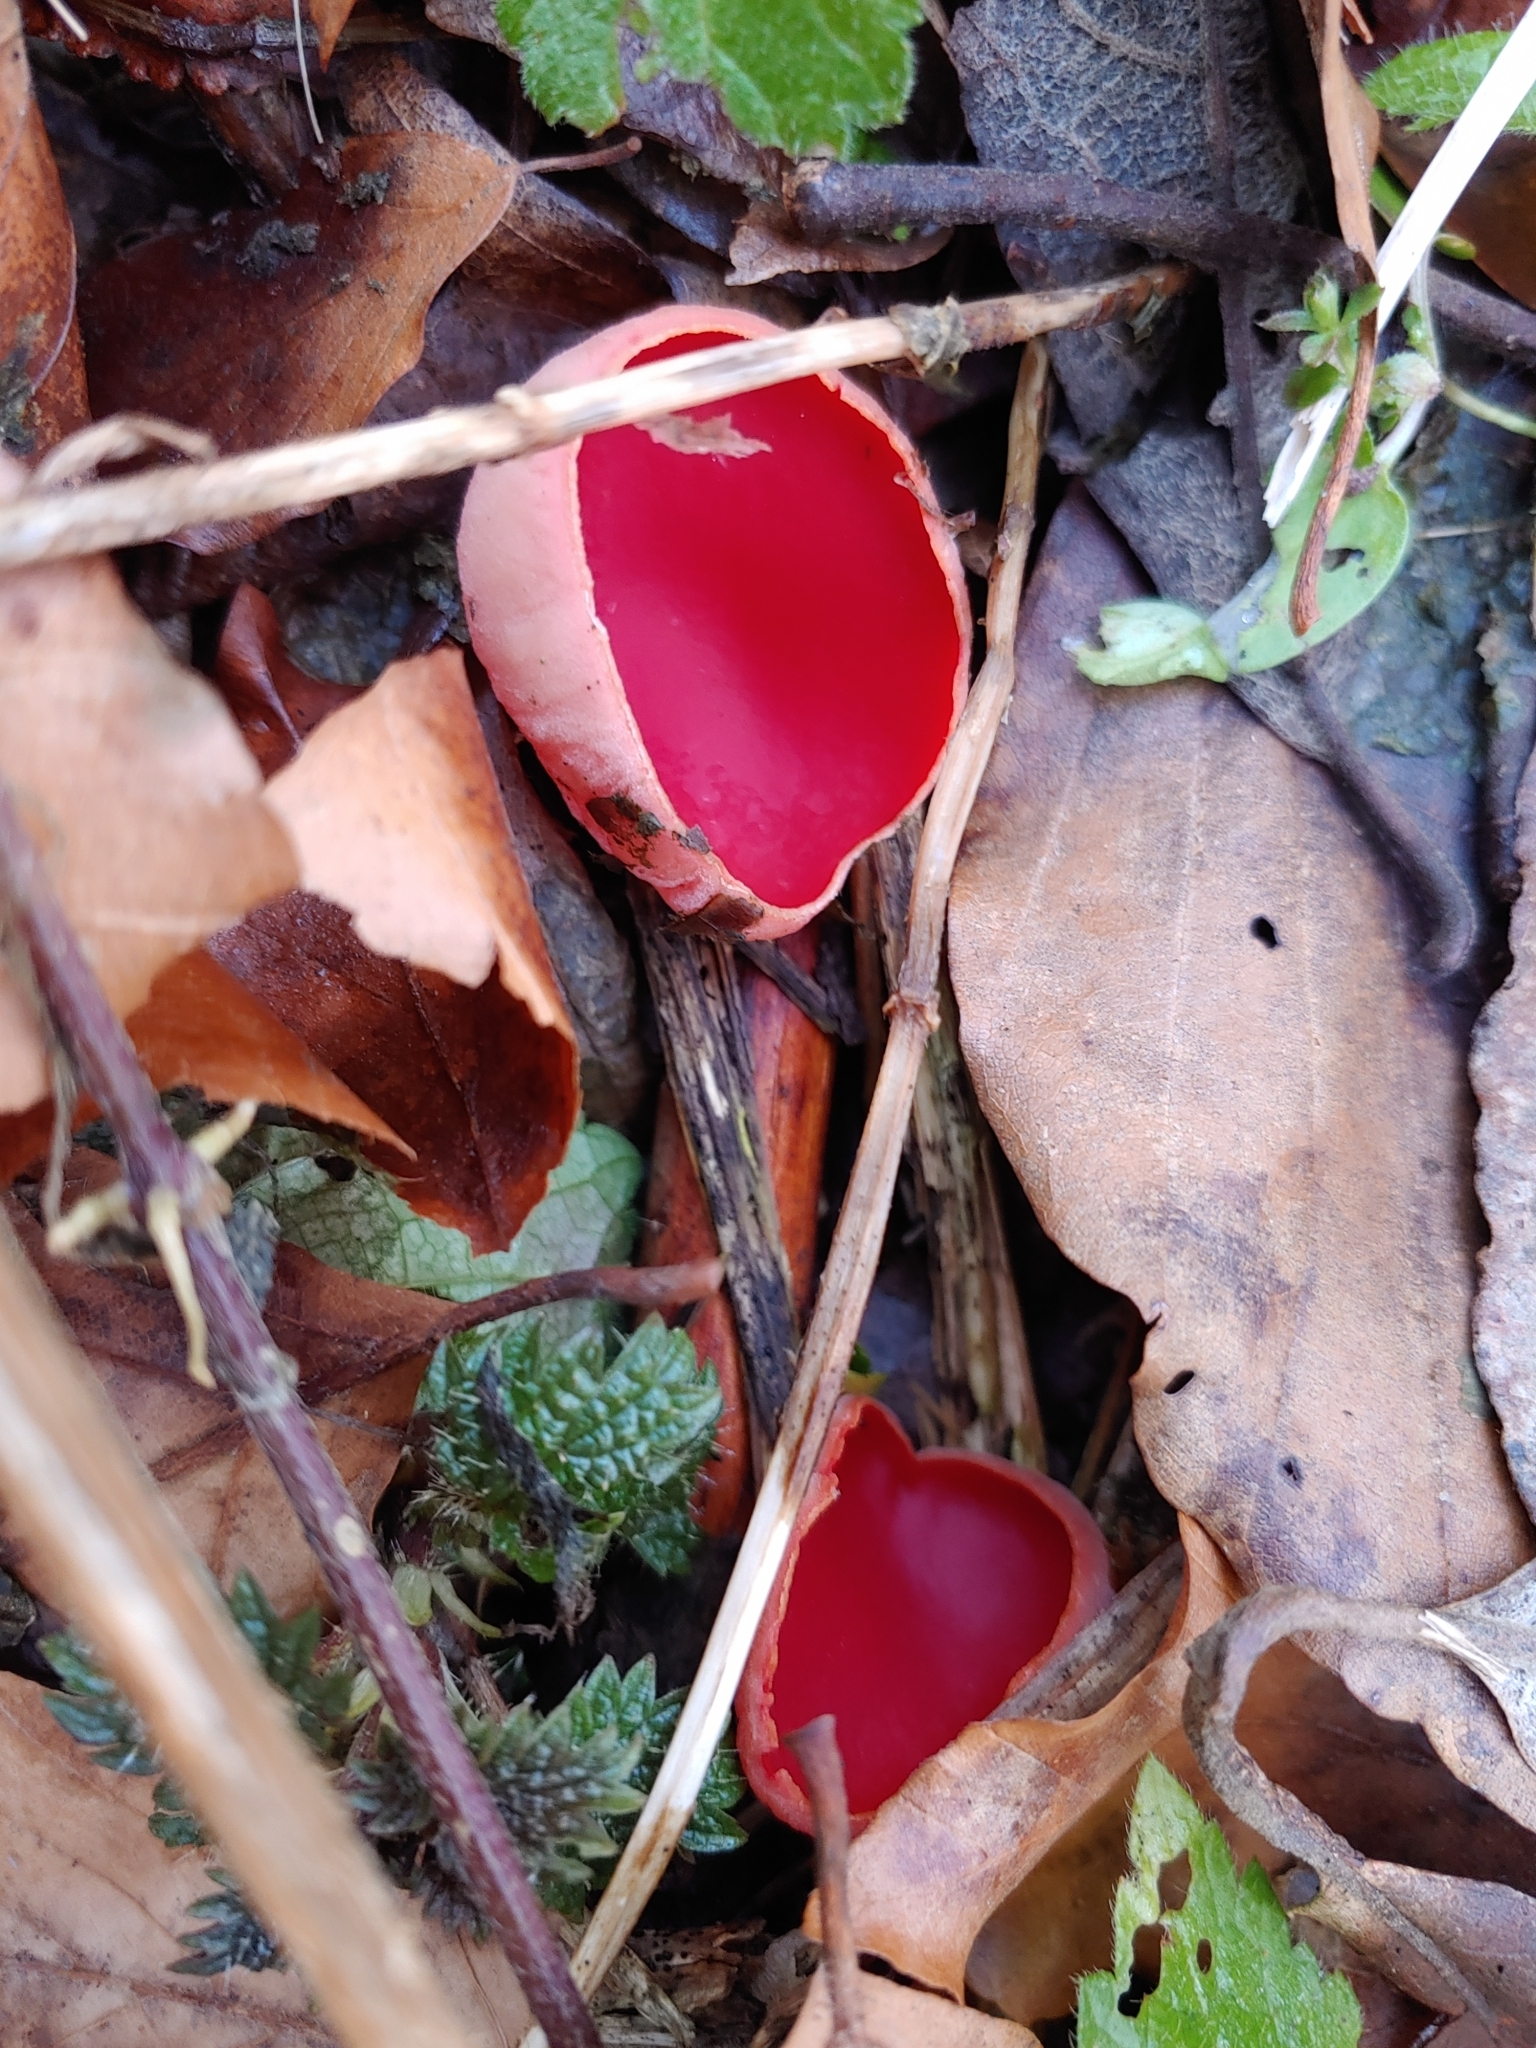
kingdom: Fungi
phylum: Ascomycota
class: Pezizomycetes
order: Pezizales
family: Sarcoscyphaceae
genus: Sarcoscypha
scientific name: Sarcoscypha
